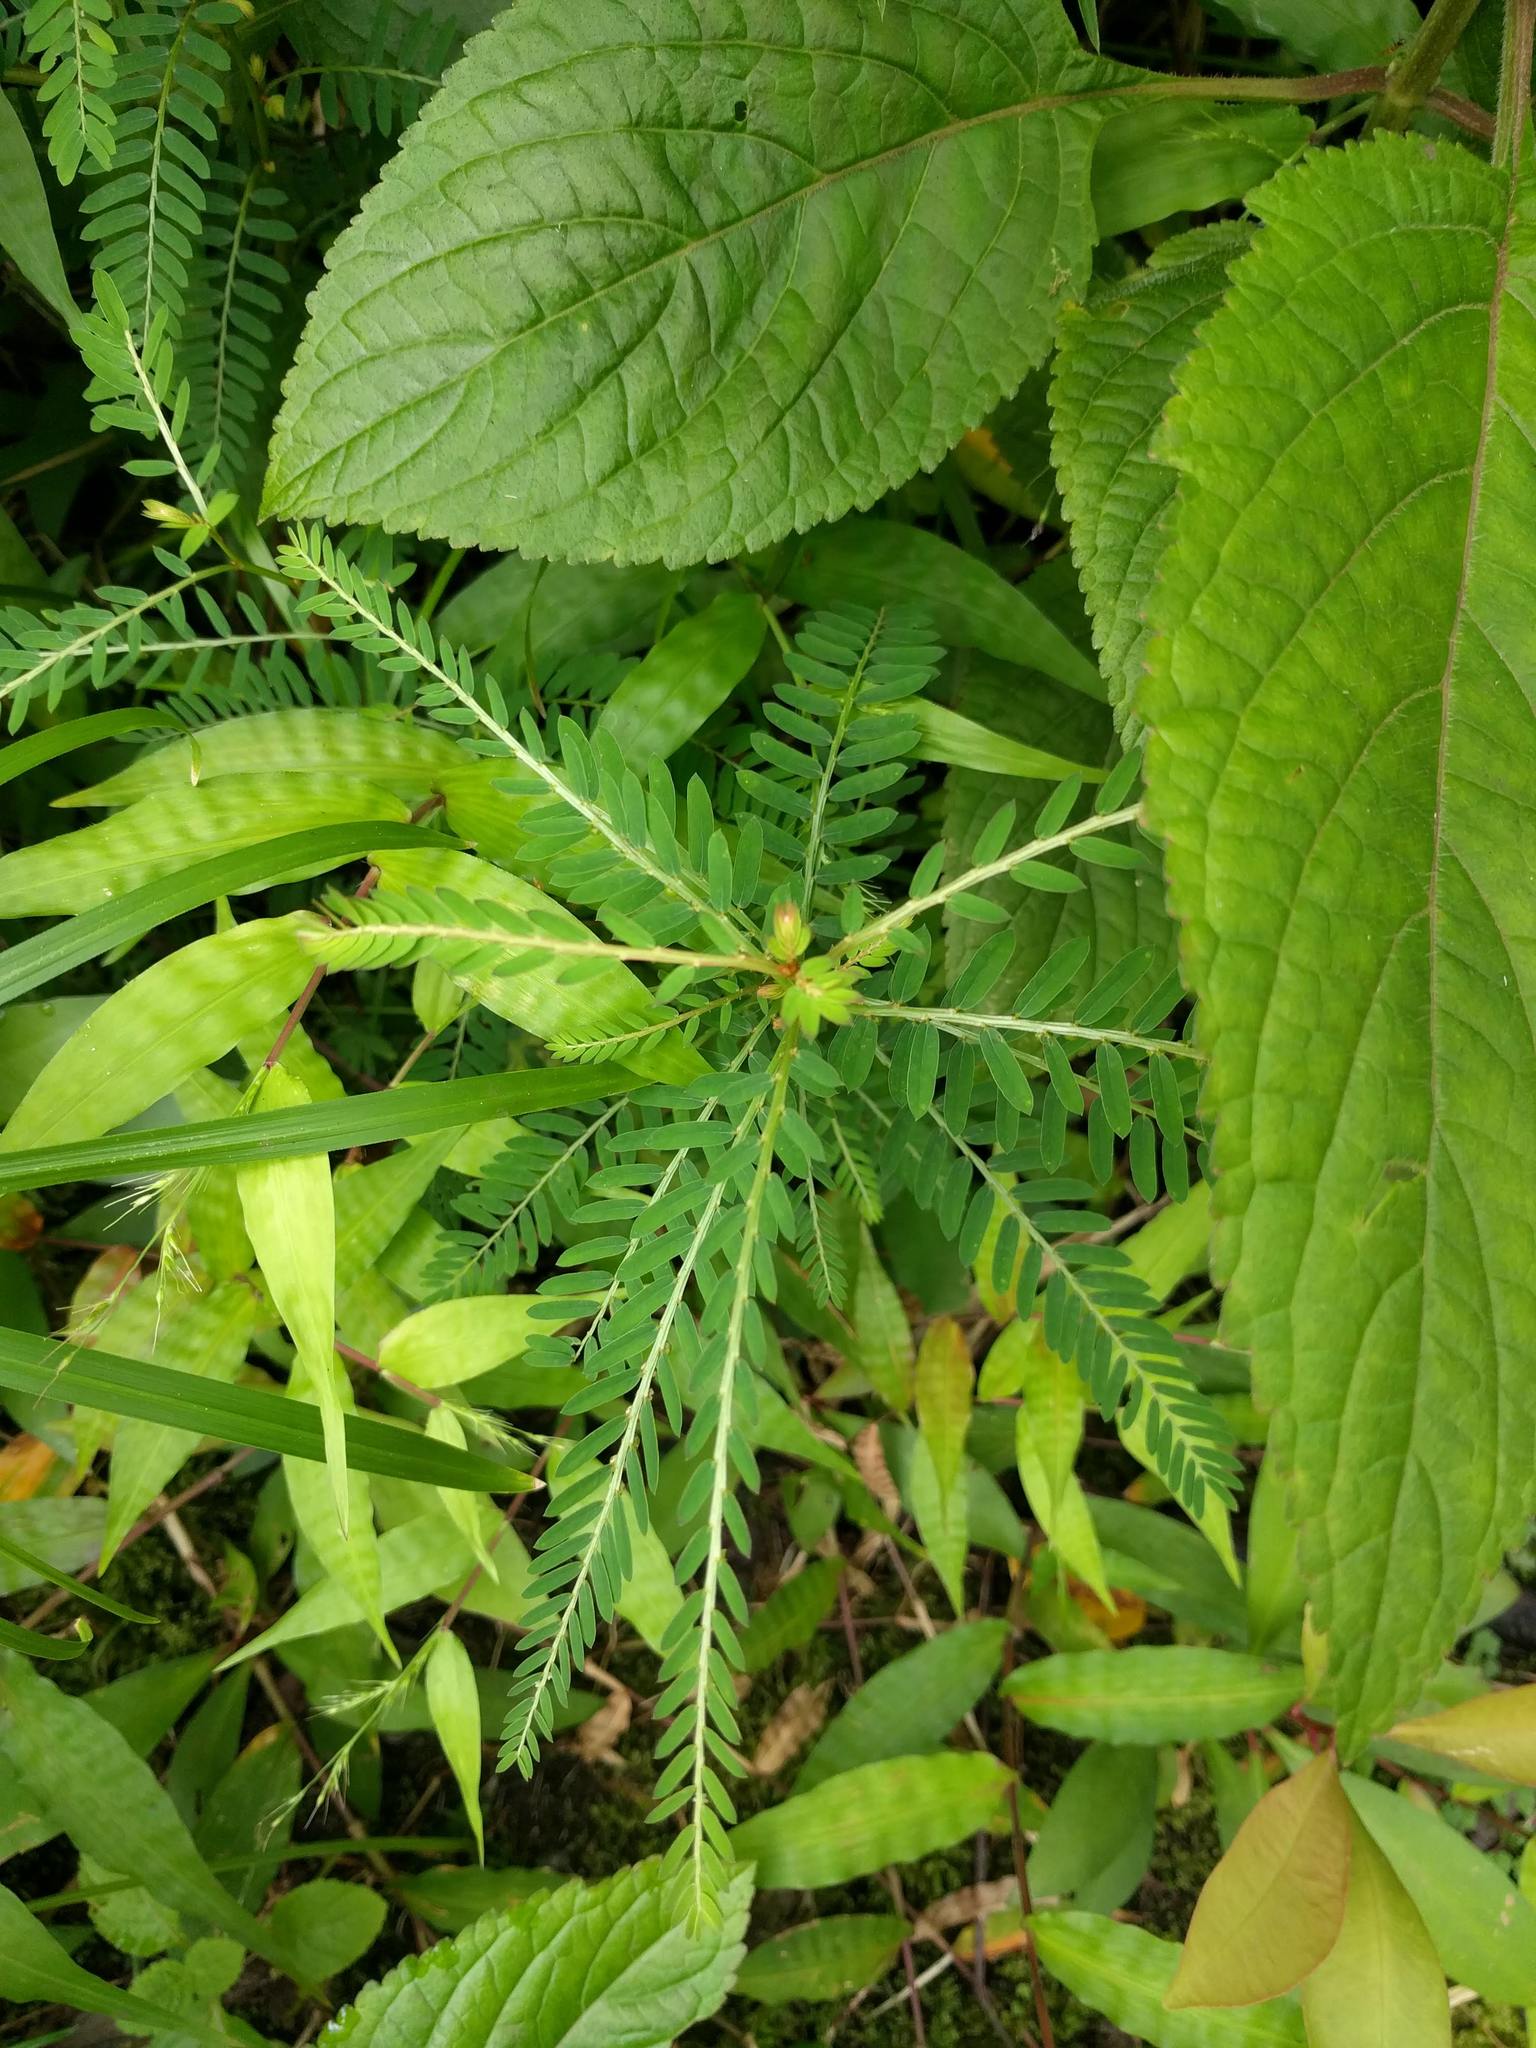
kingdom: Plantae
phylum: Tracheophyta
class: Magnoliopsida
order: Malpighiales
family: Phyllanthaceae
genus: Phyllanthus
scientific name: Phyllanthus debilis
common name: Niruri
